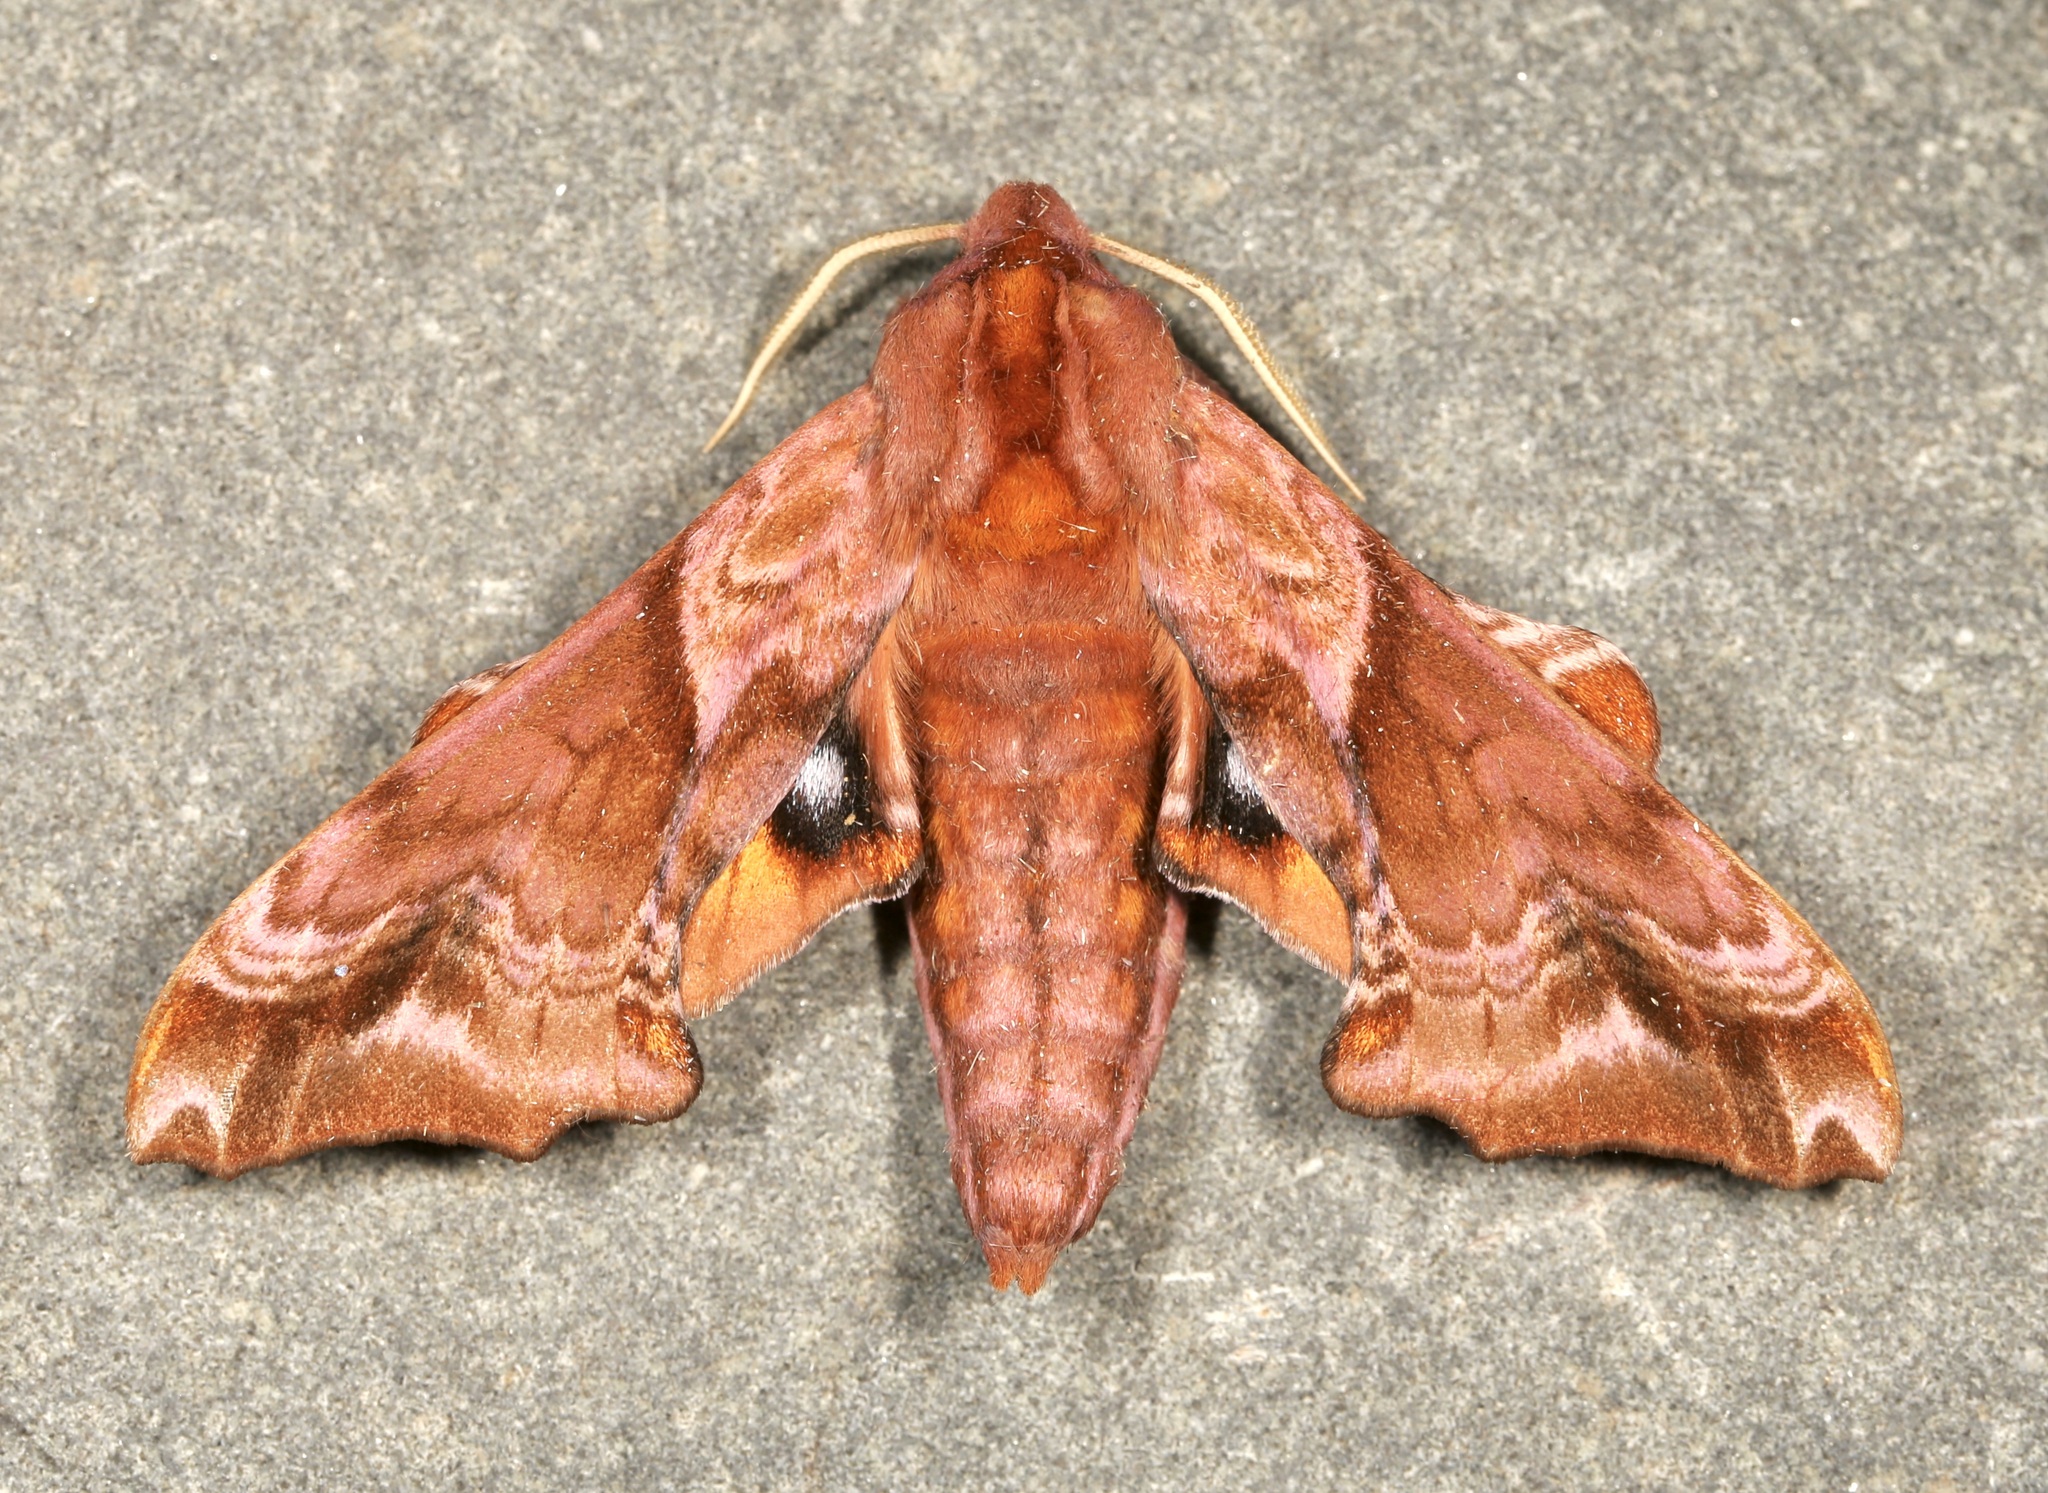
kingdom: Animalia
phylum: Arthropoda
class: Insecta
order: Lepidoptera
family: Sphingidae
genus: Paonias
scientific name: Paonias myops
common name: Small-eyed sphinx
